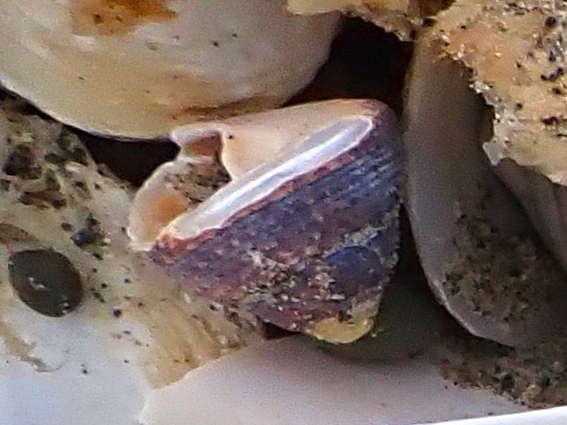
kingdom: Animalia
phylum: Mollusca
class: Gastropoda
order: Trochida
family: Trochidae
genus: Coelotrochus
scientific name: Coelotrochus tiaratus
